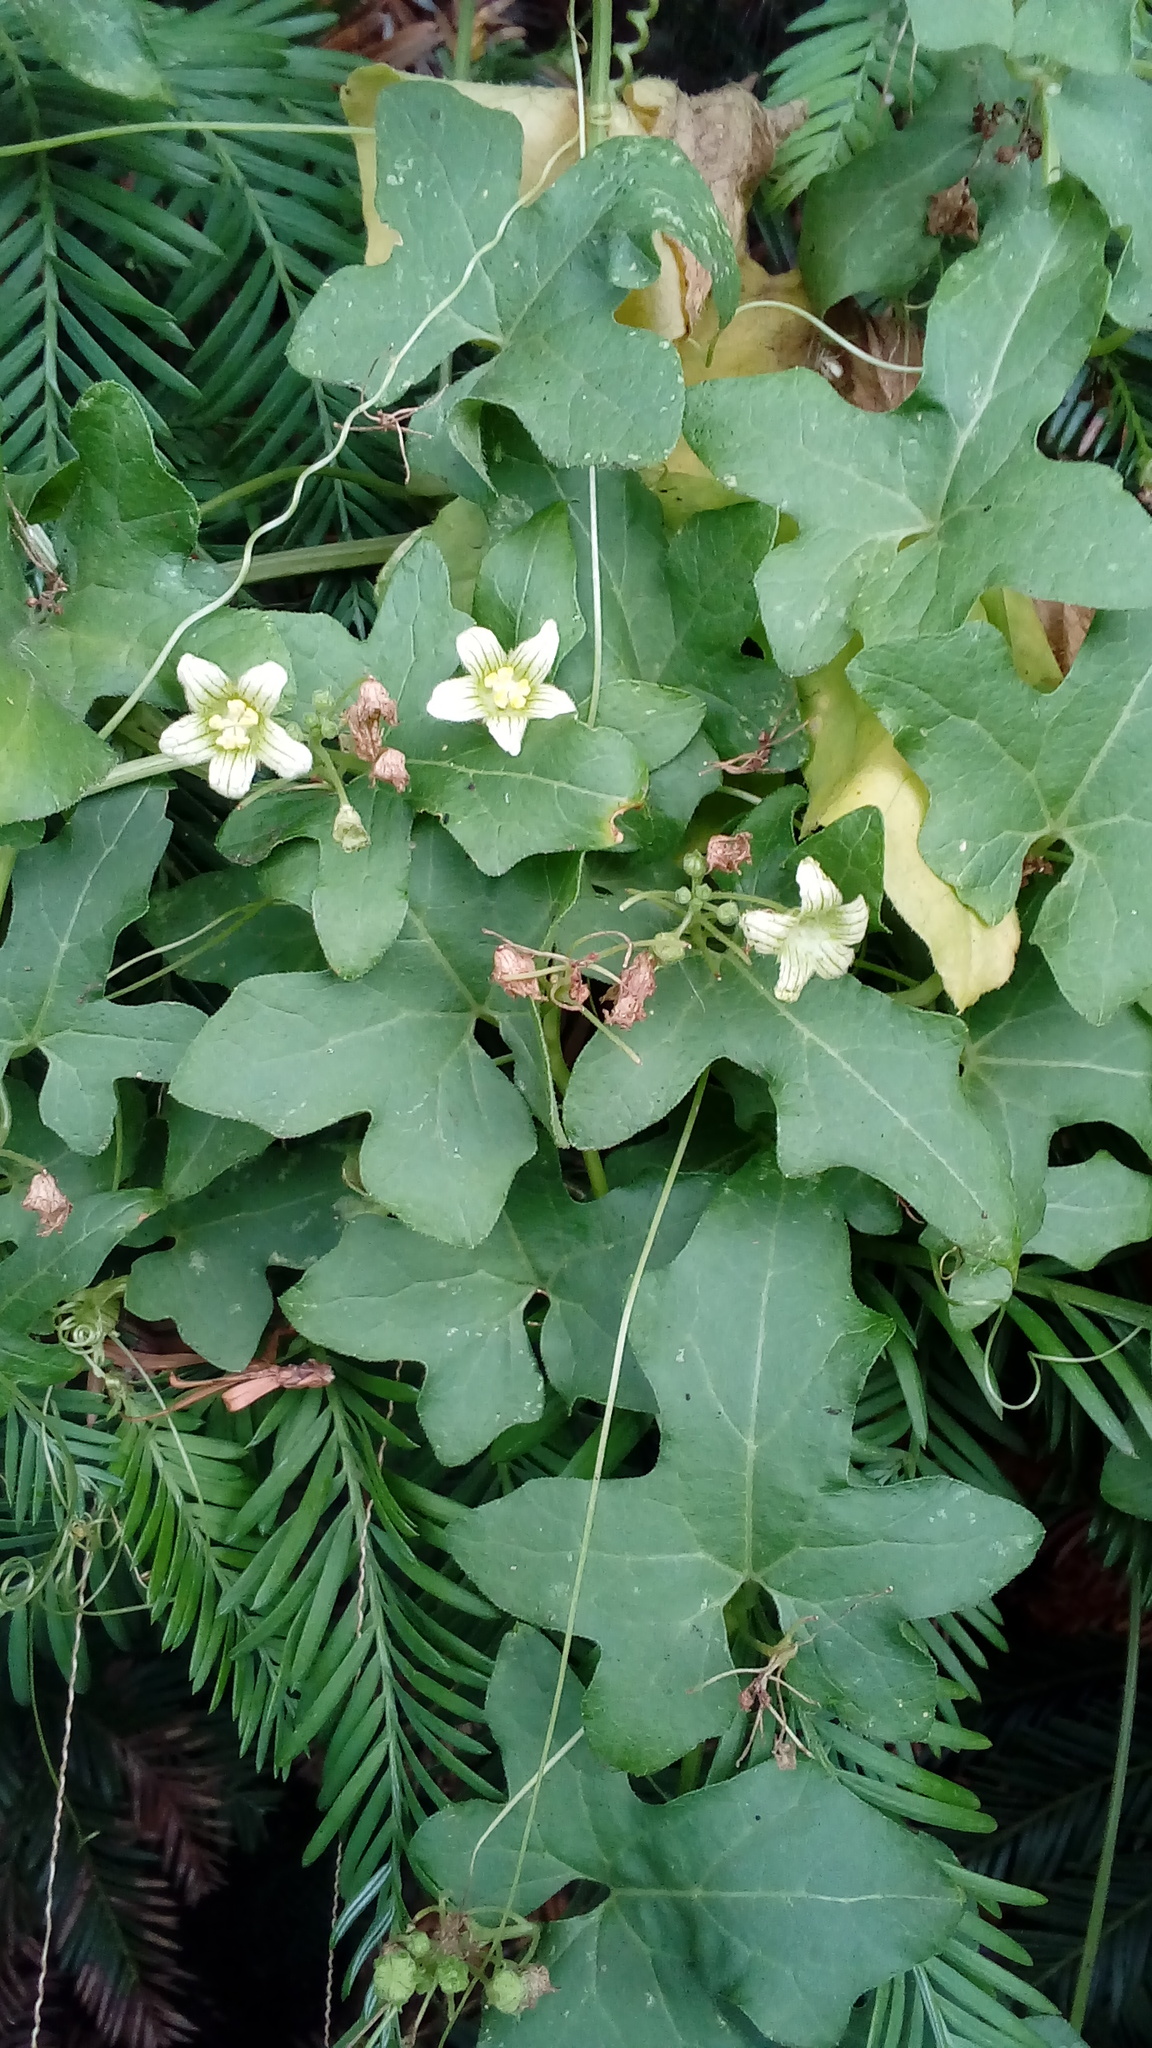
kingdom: Plantae
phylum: Tracheophyta
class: Magnoliopsida
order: Cucurbitales
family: Cucurbitaceae
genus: Bryonia
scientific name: Bryonia dioica
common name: White bryony
